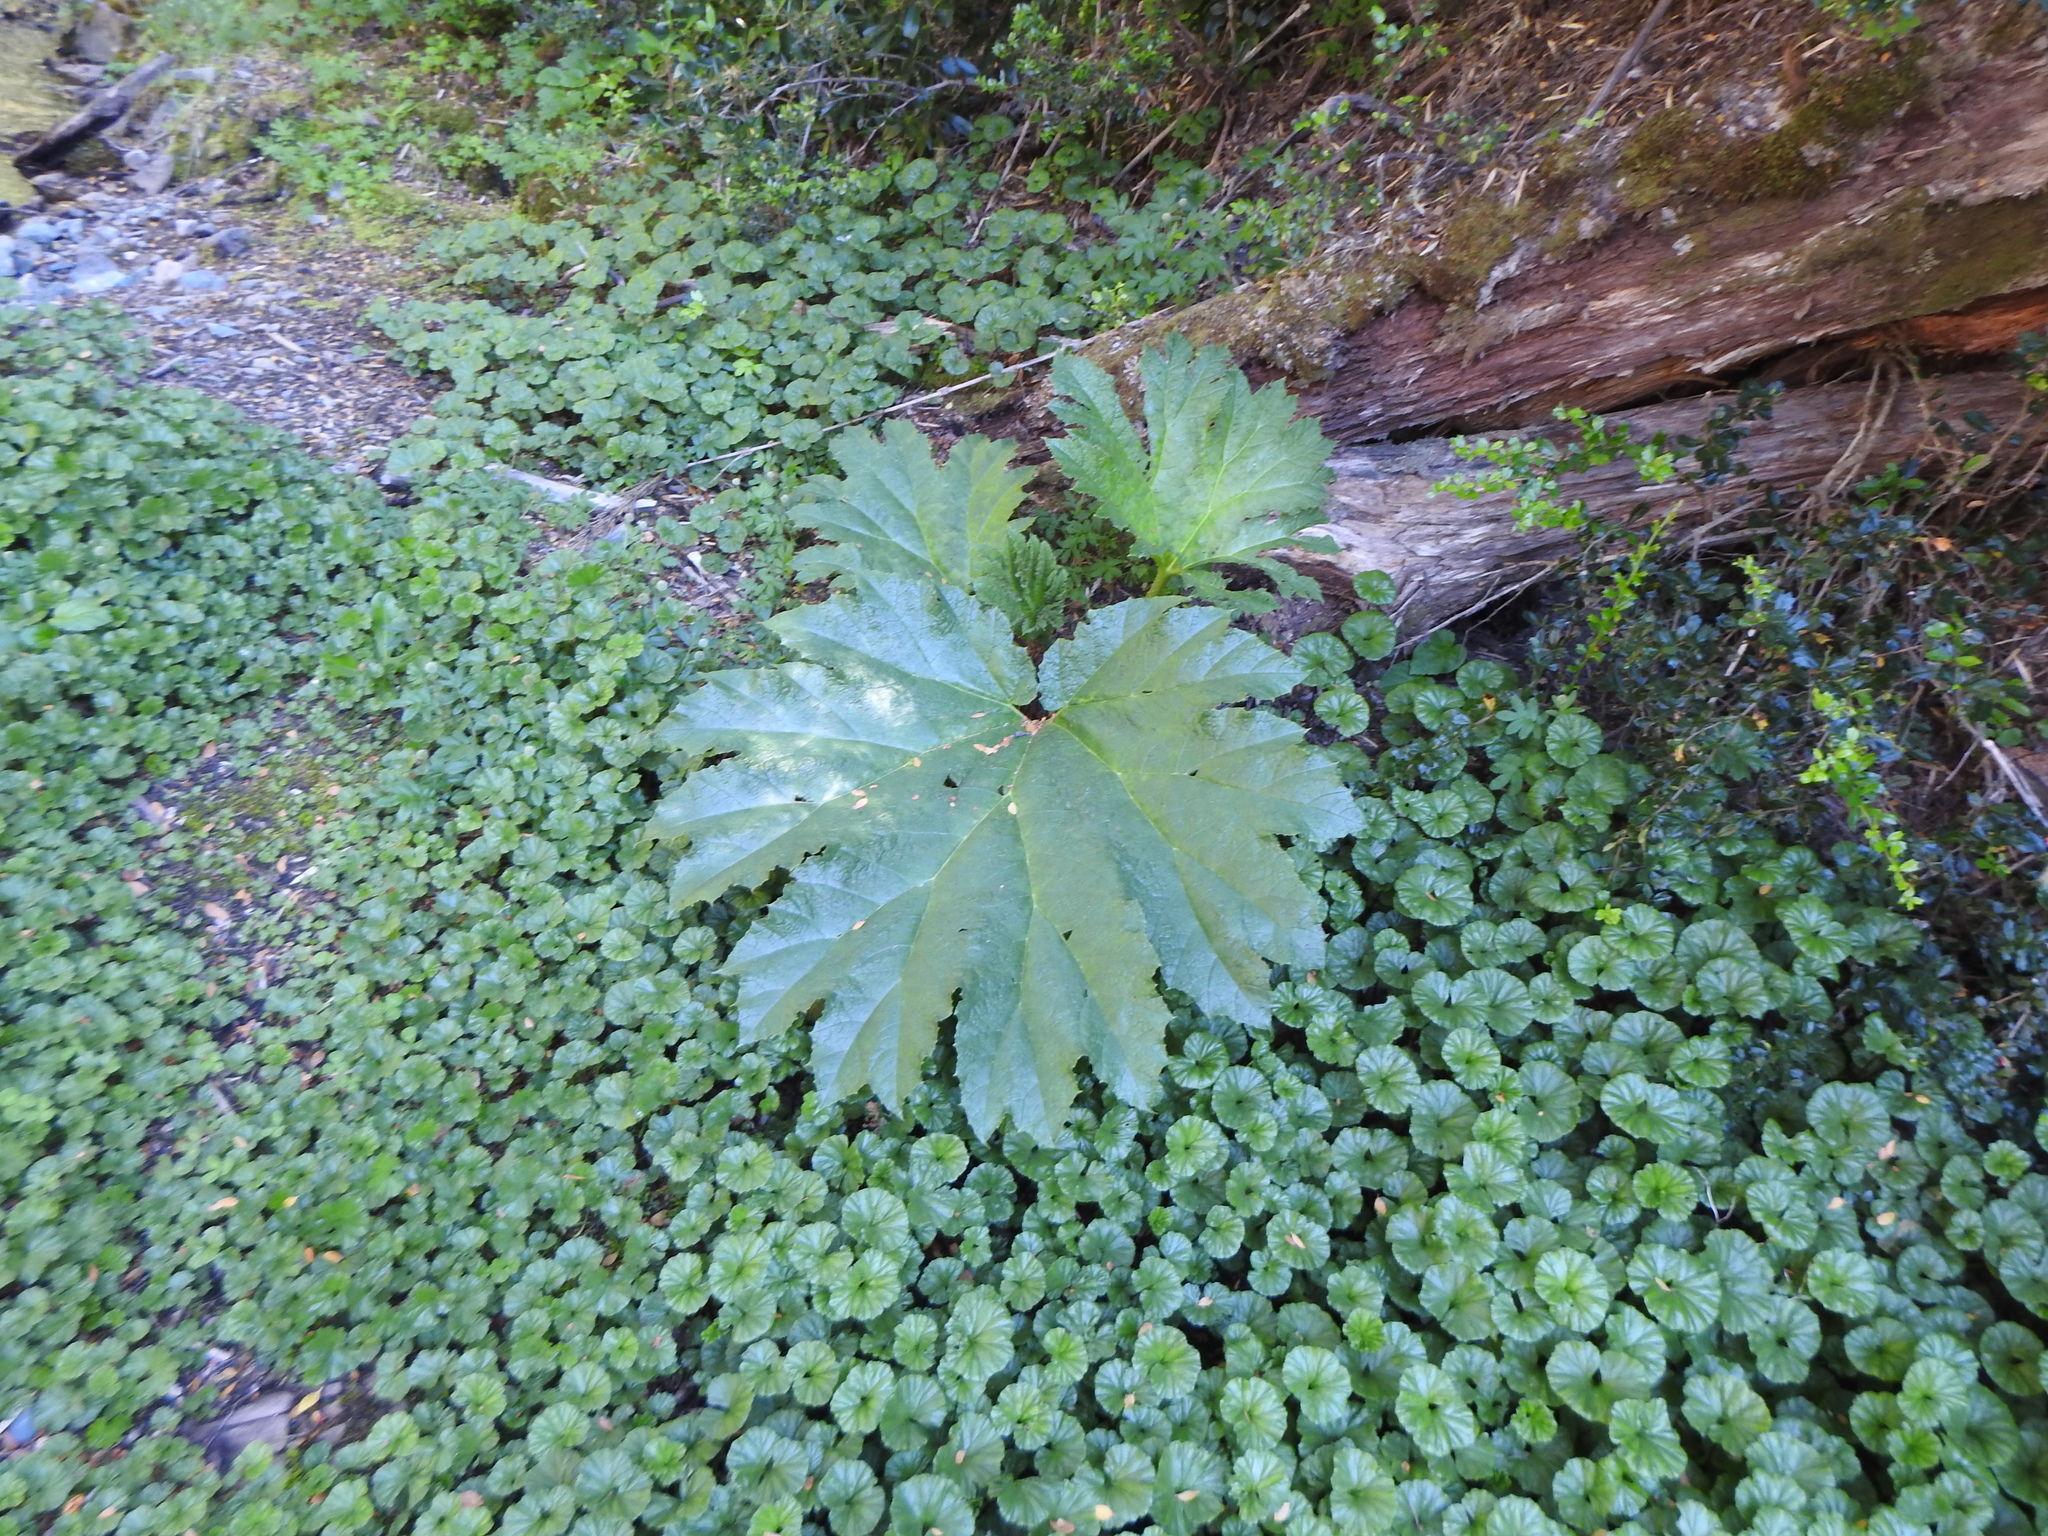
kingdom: Plantae
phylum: Tracheophyta
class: Magnoliopsida
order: Gunnerales
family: Gunneraceae
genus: Gunnera
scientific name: Gunnera tinctoria
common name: Giant-rhubarb
